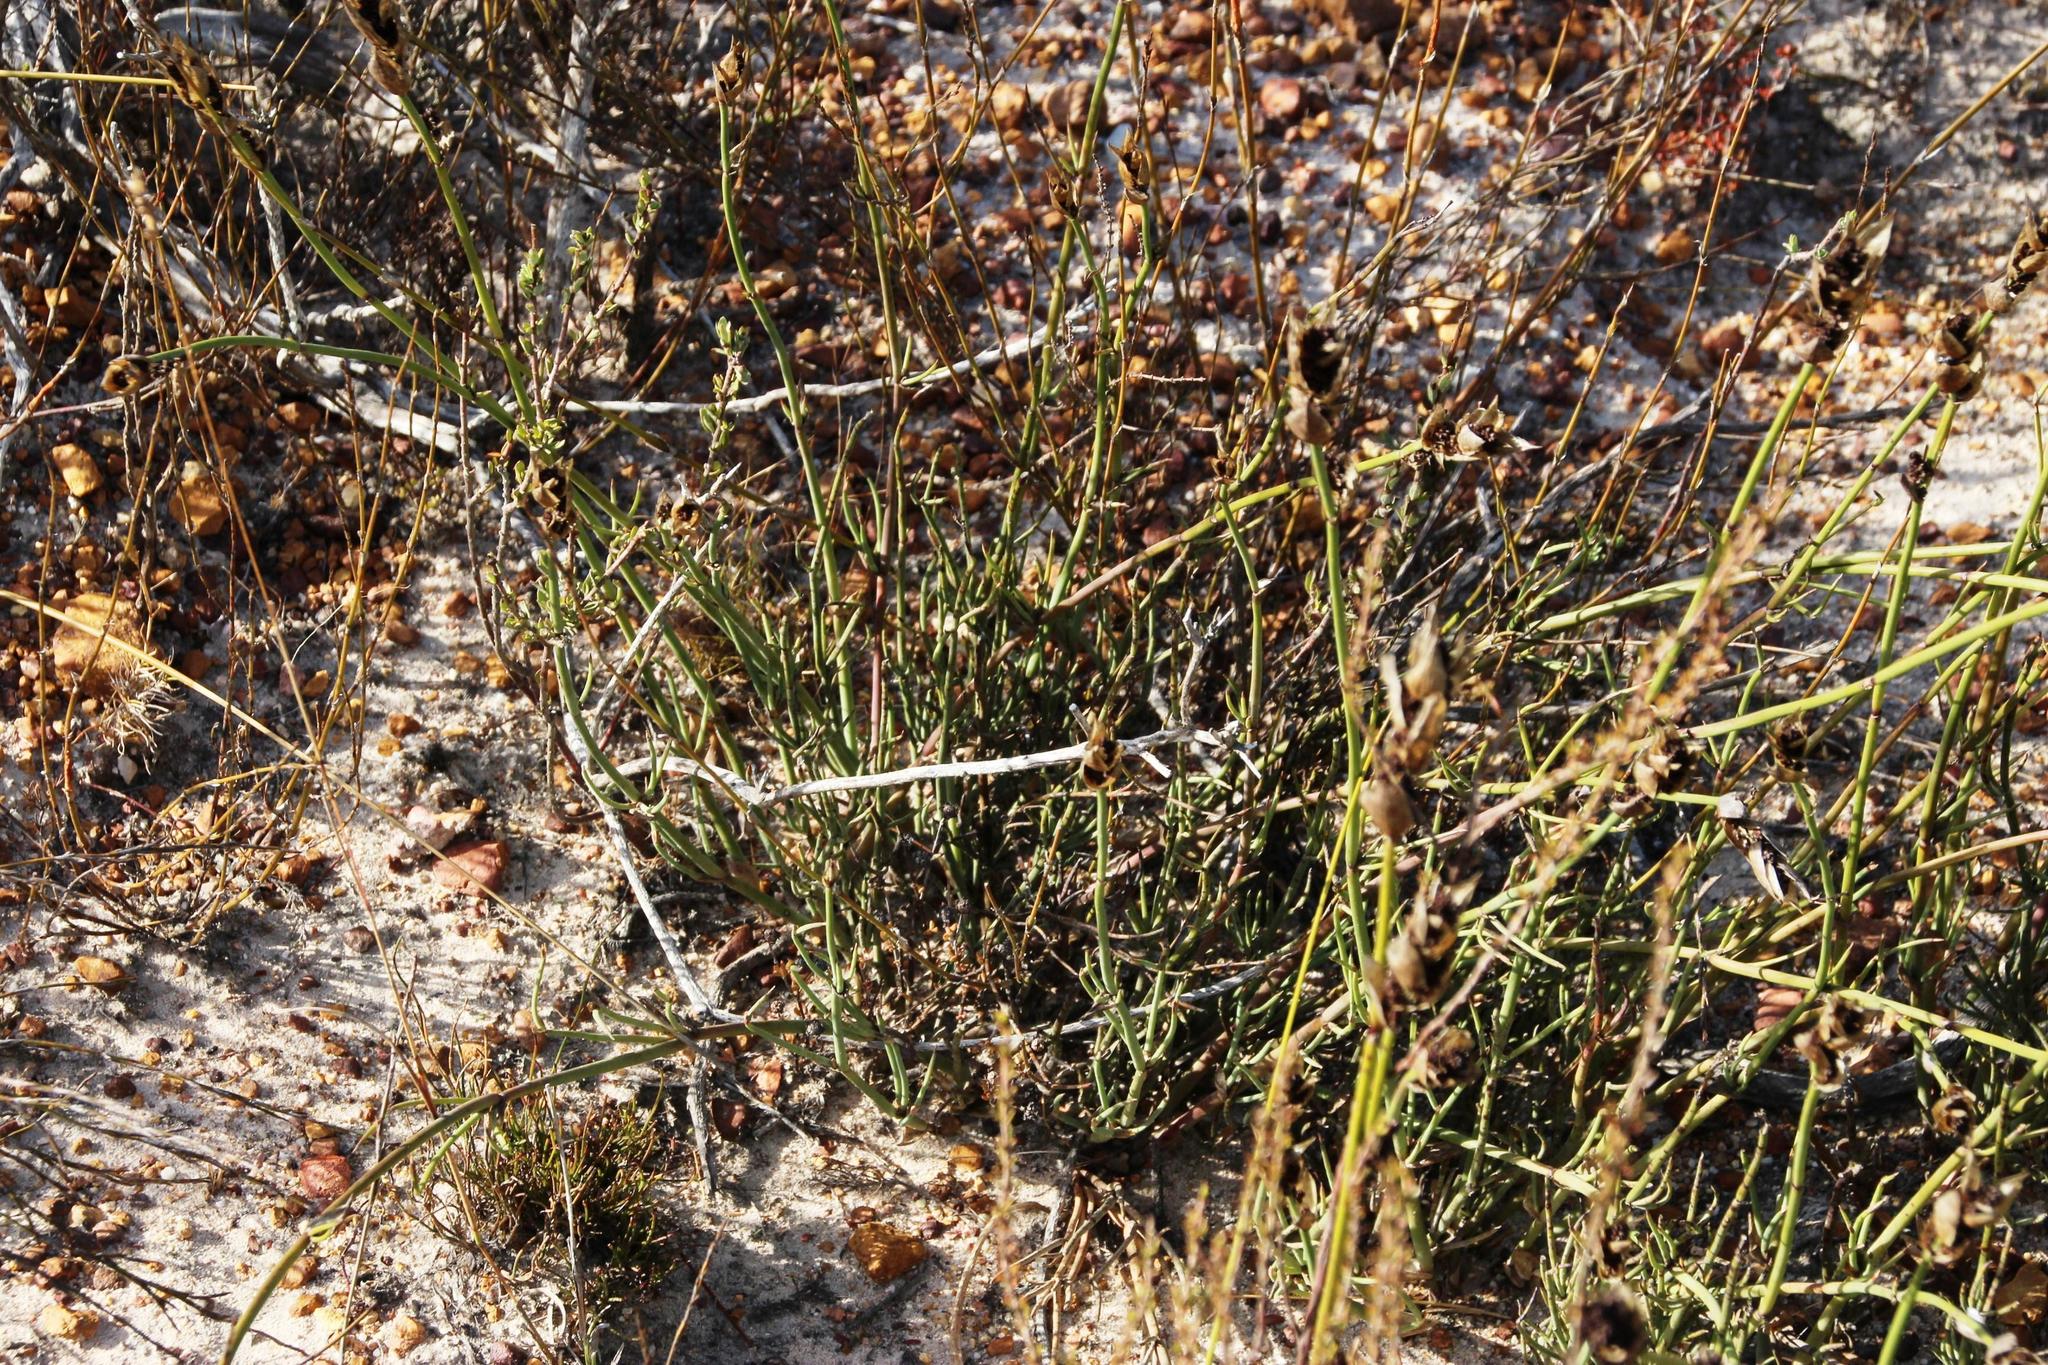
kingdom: Plantae
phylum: Tracheophyta
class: Liliopsida
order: Poales
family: Restionaceae
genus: Elegia
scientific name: Elegia extensa
